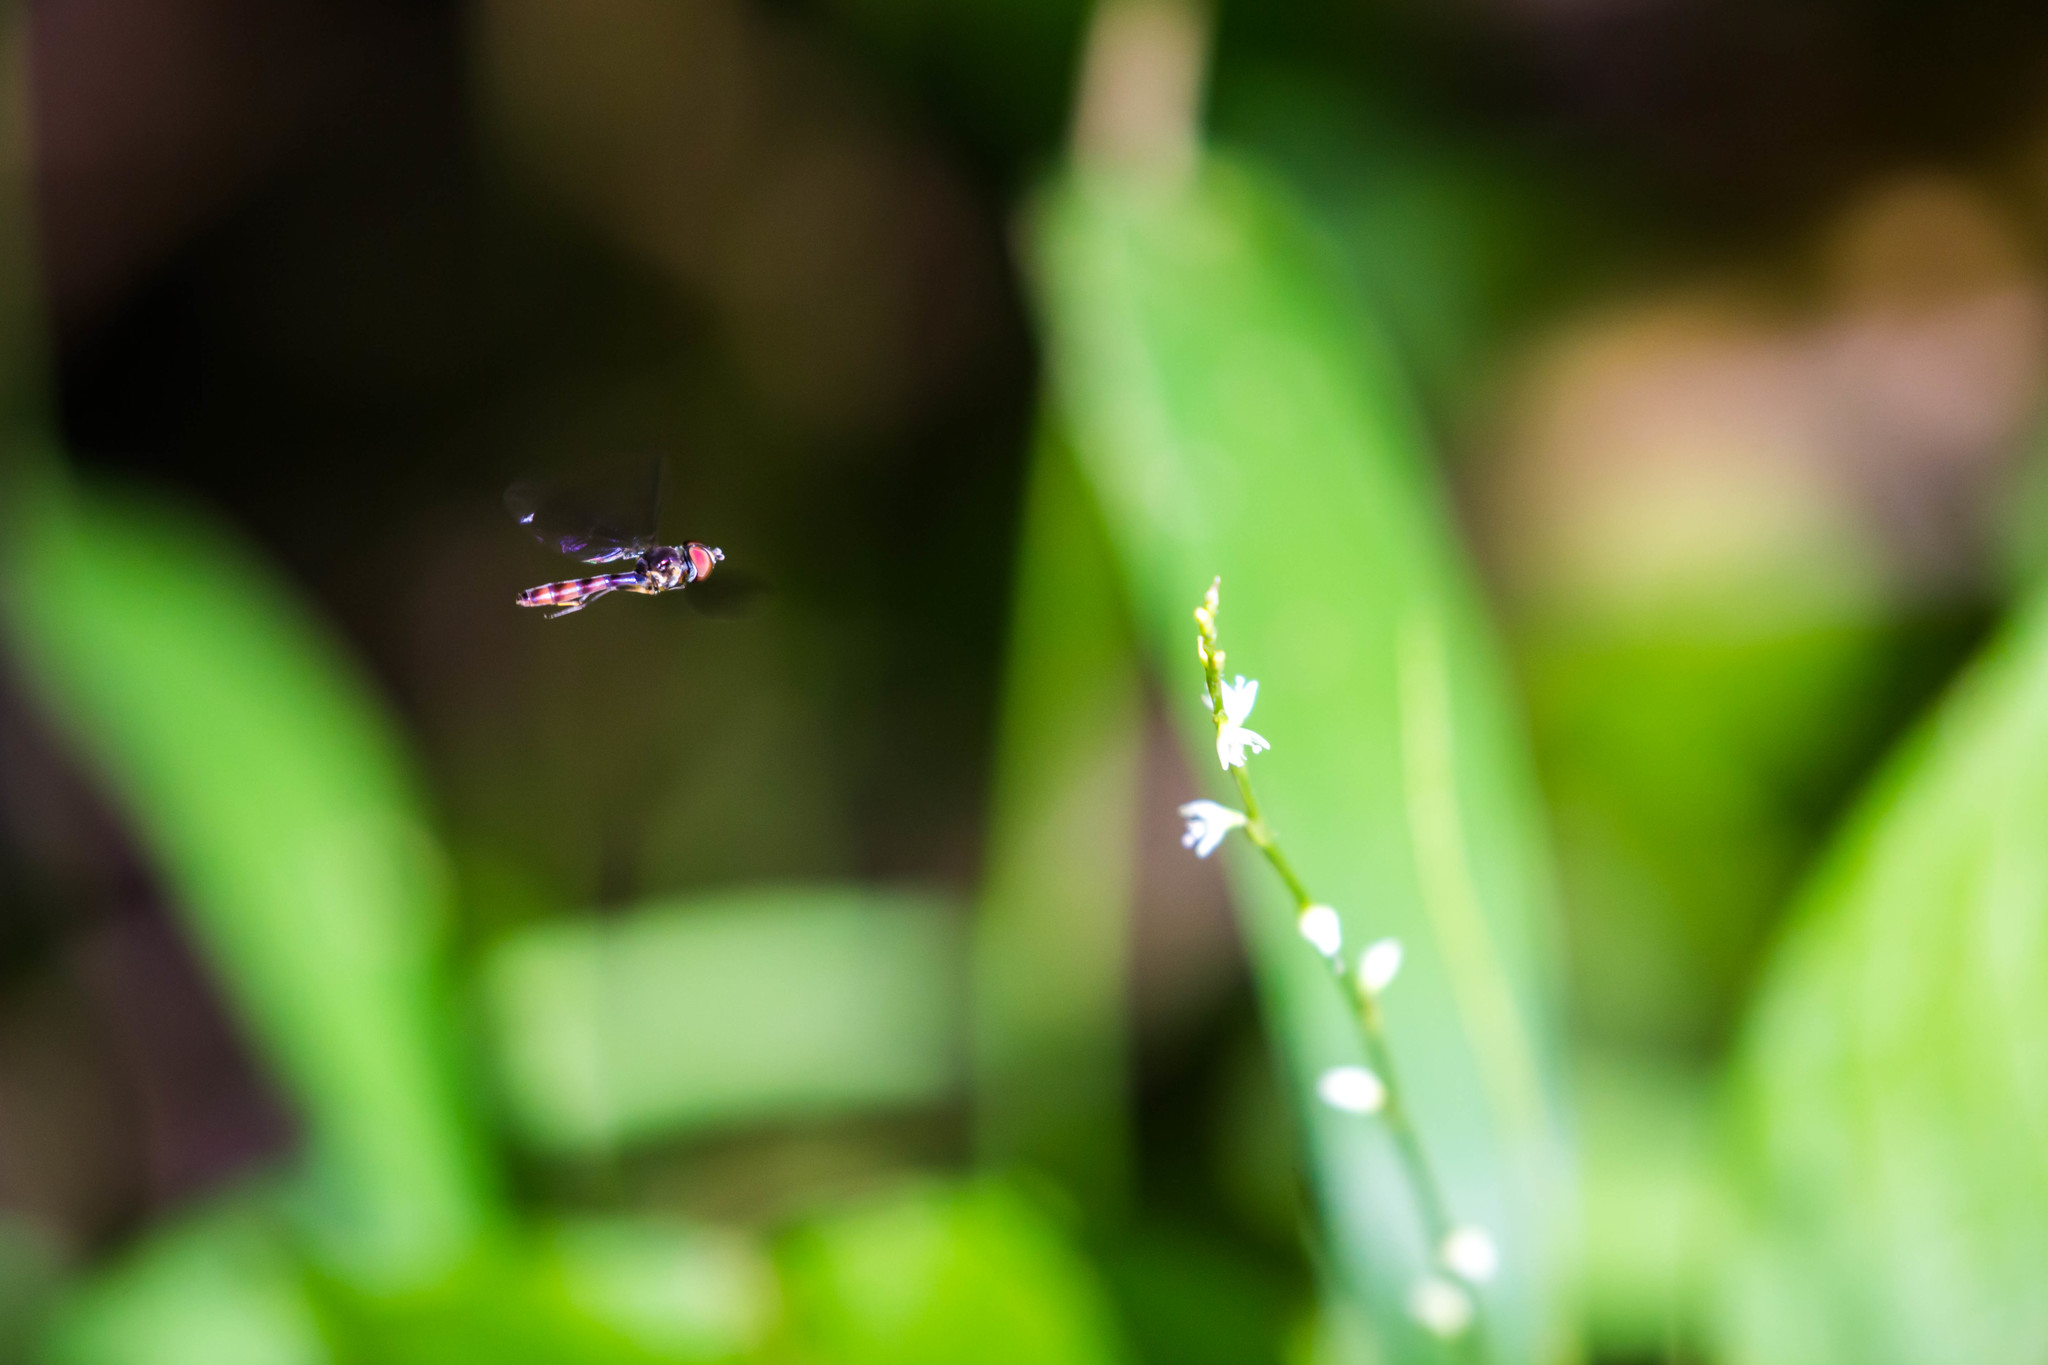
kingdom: Animalia
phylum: Arthropoda
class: Insecta
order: Diptera
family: Syrphidae
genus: Ocyptamus
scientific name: Ocyptamus fuscipennis
